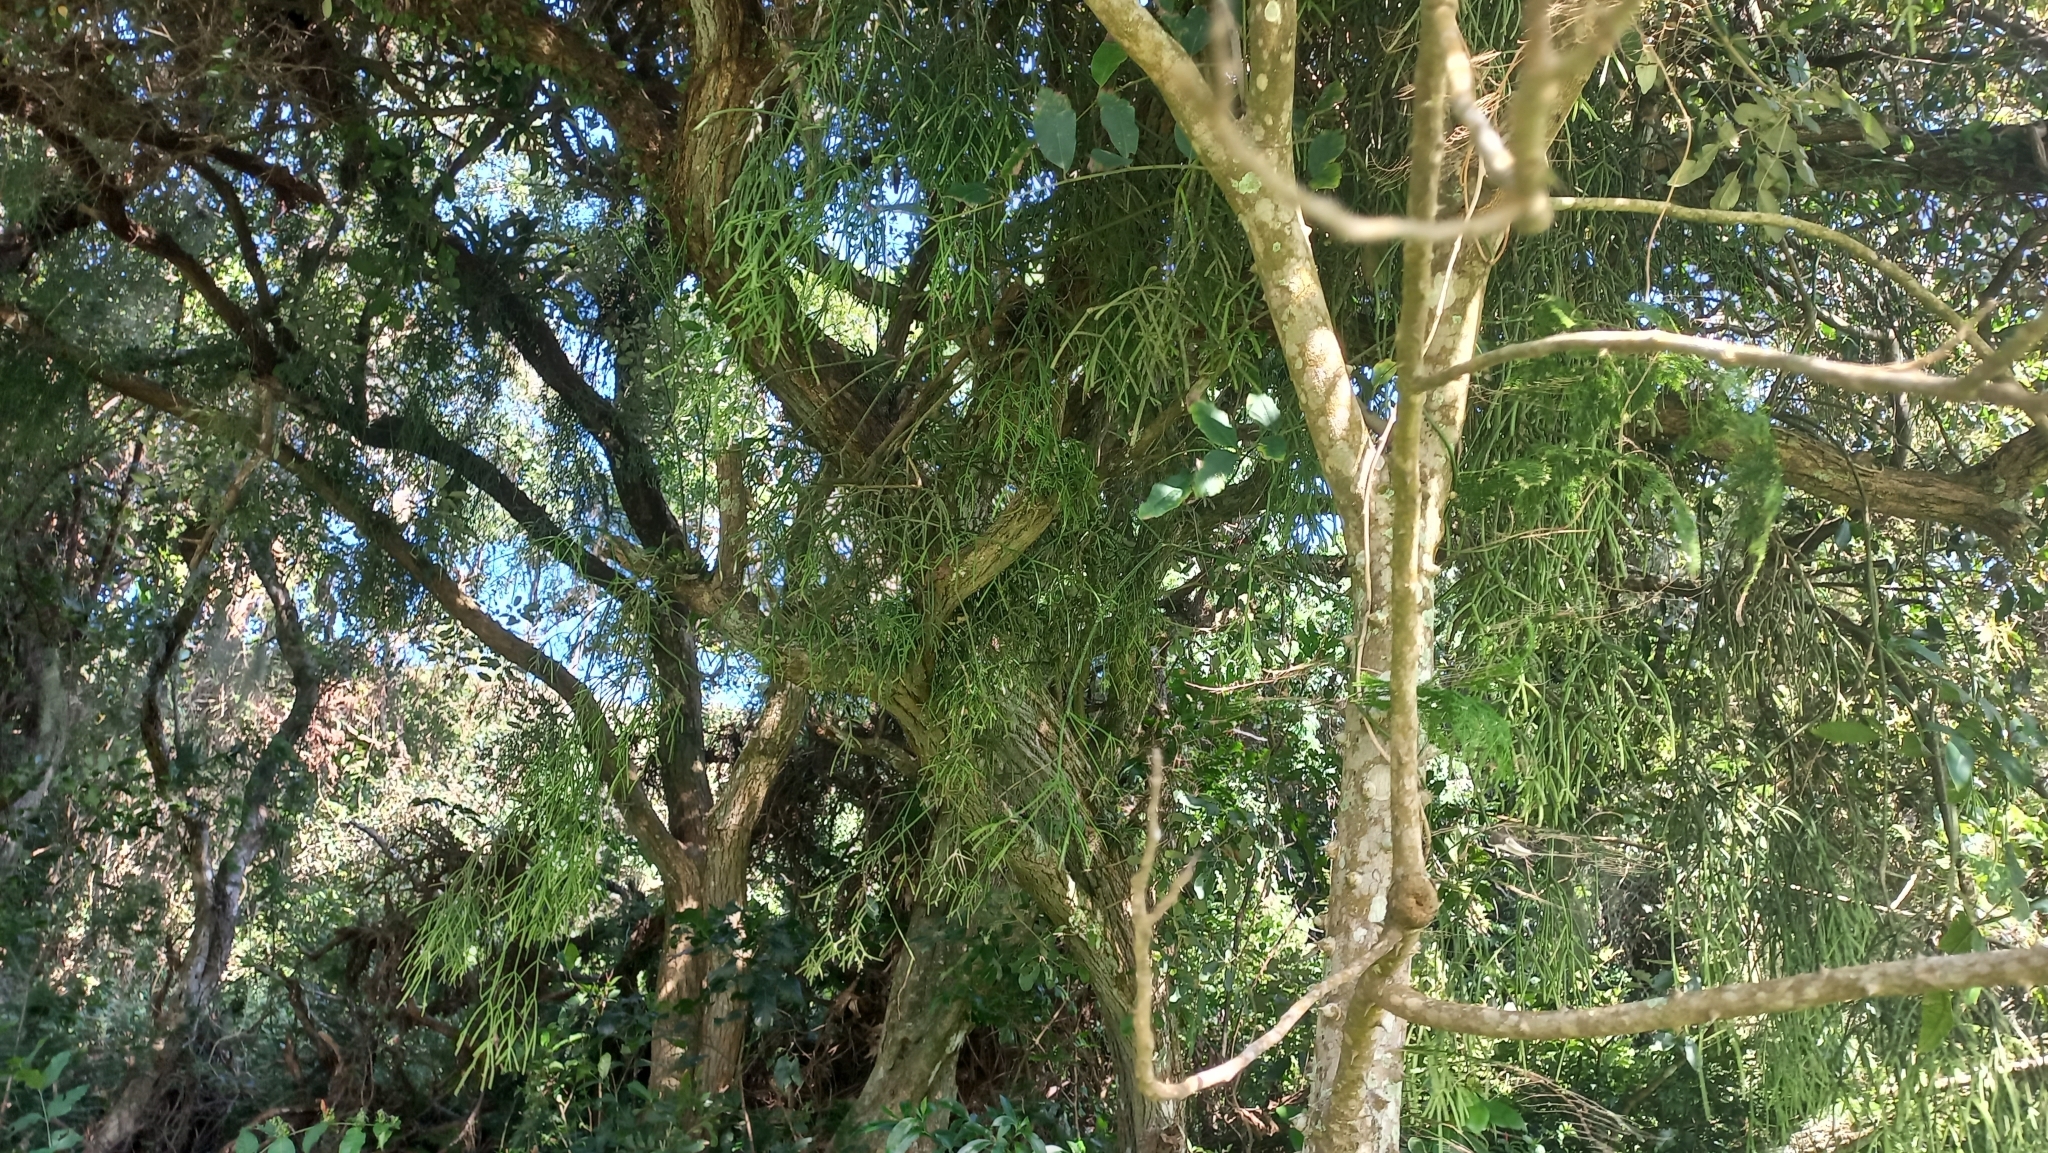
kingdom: Plantae
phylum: Tracheophyta
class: Magnoliopsida
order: Caryophyllales
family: Cactaceae
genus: Rhipsalis
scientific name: Rhipsalis teres
